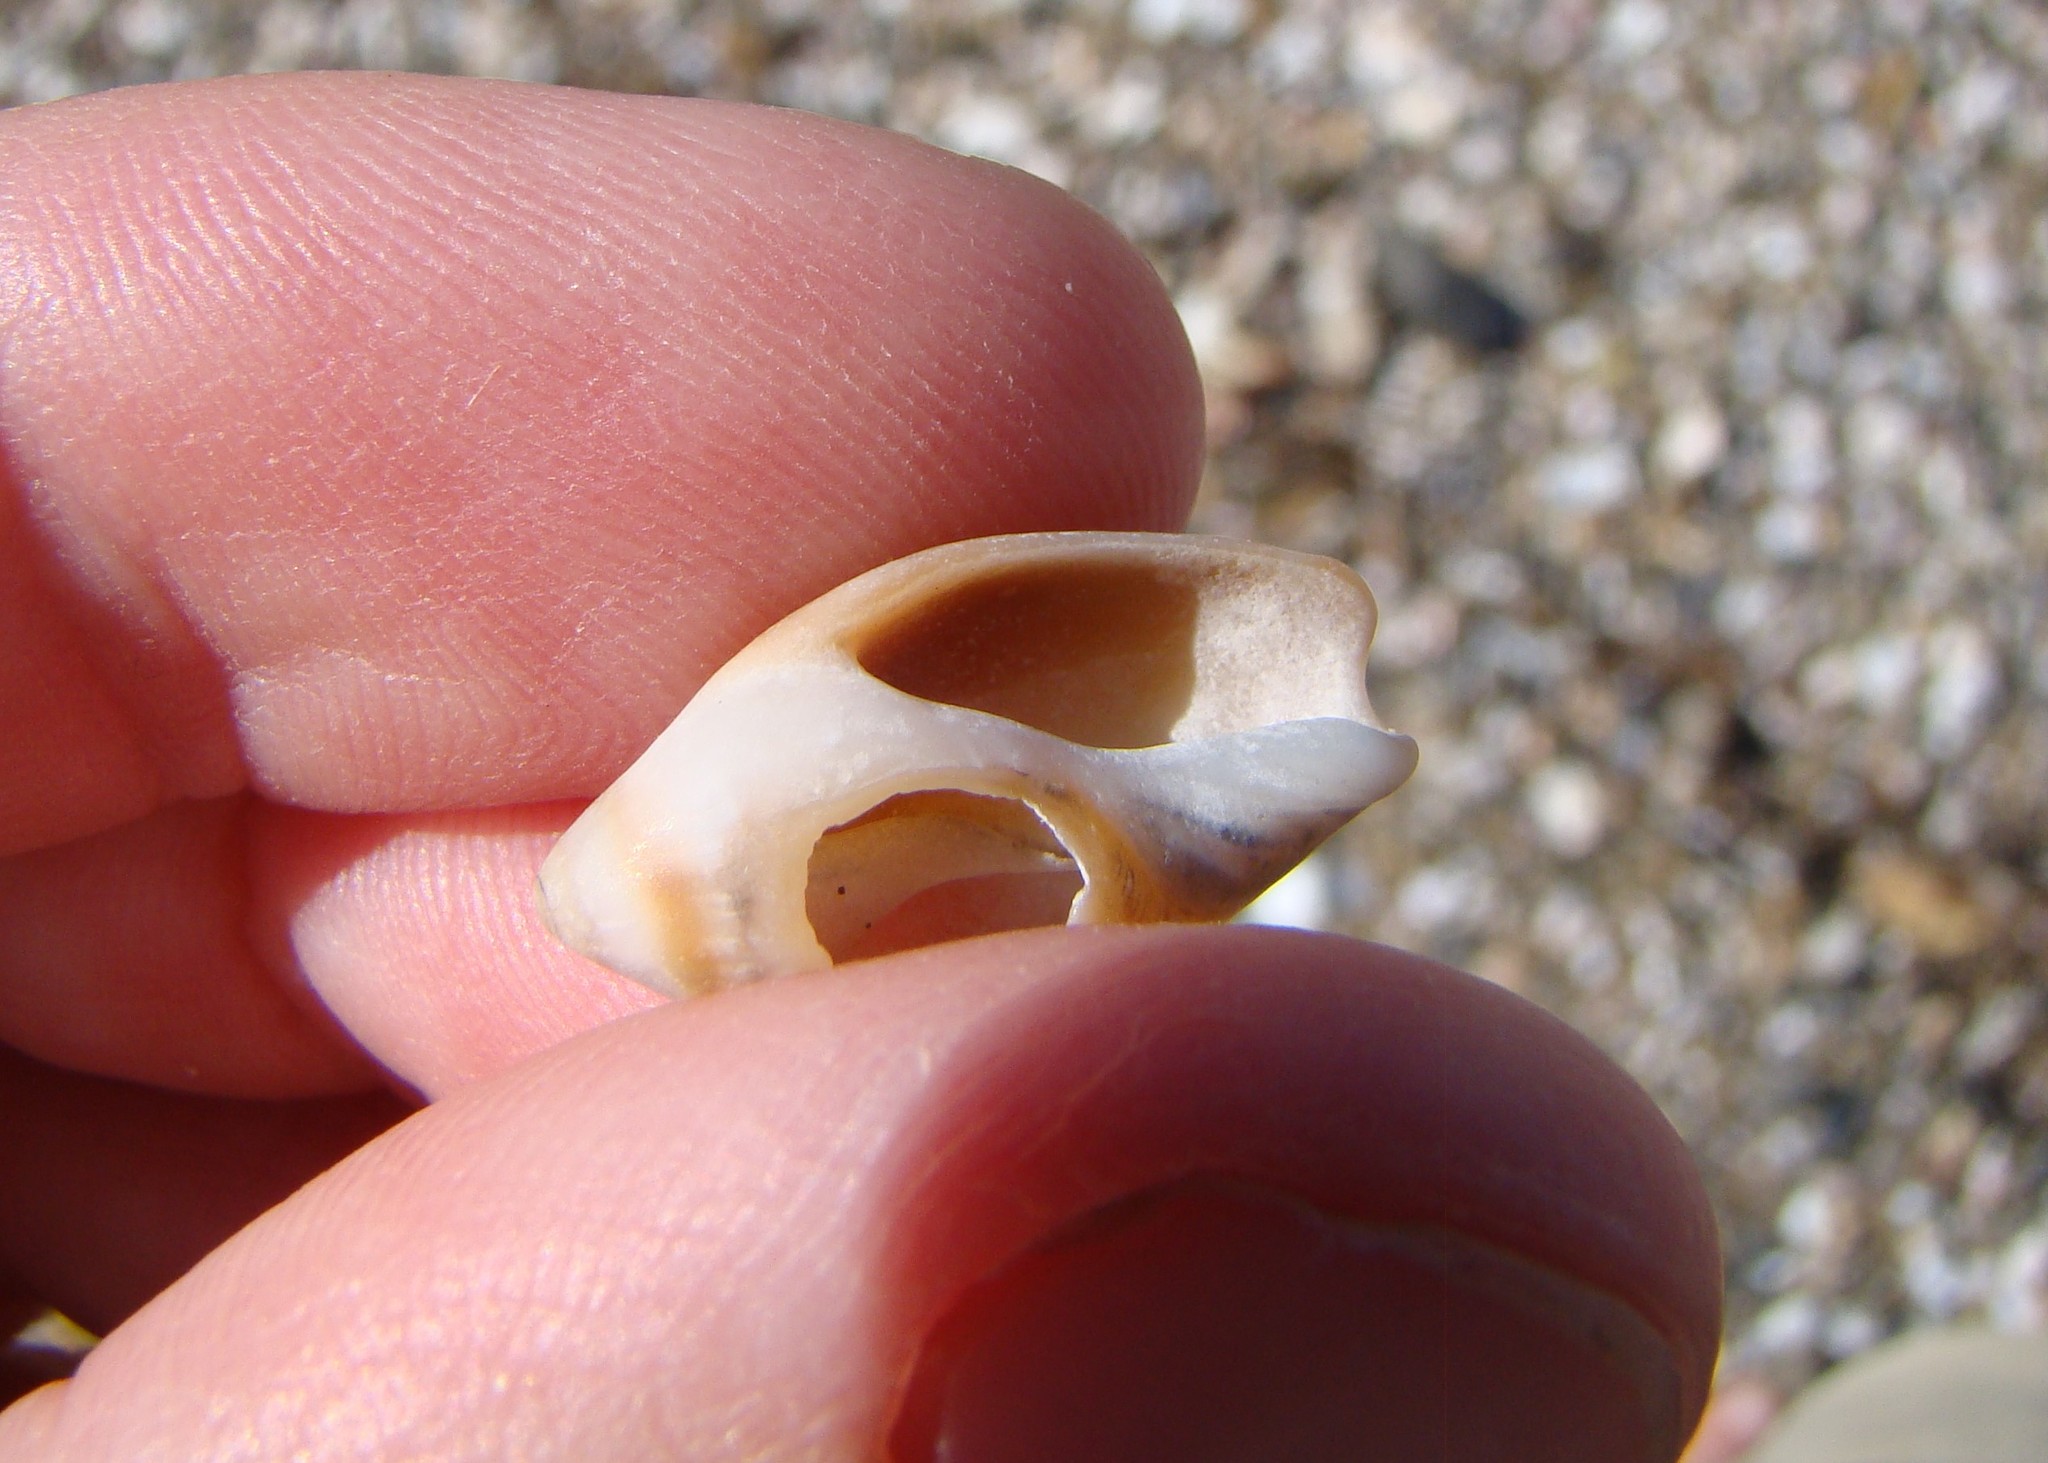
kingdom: Animalia
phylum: Mollusca
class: Gastropoda
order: Neogastropoda
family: Ancillariidae
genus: Amalda
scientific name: Amalda australis
